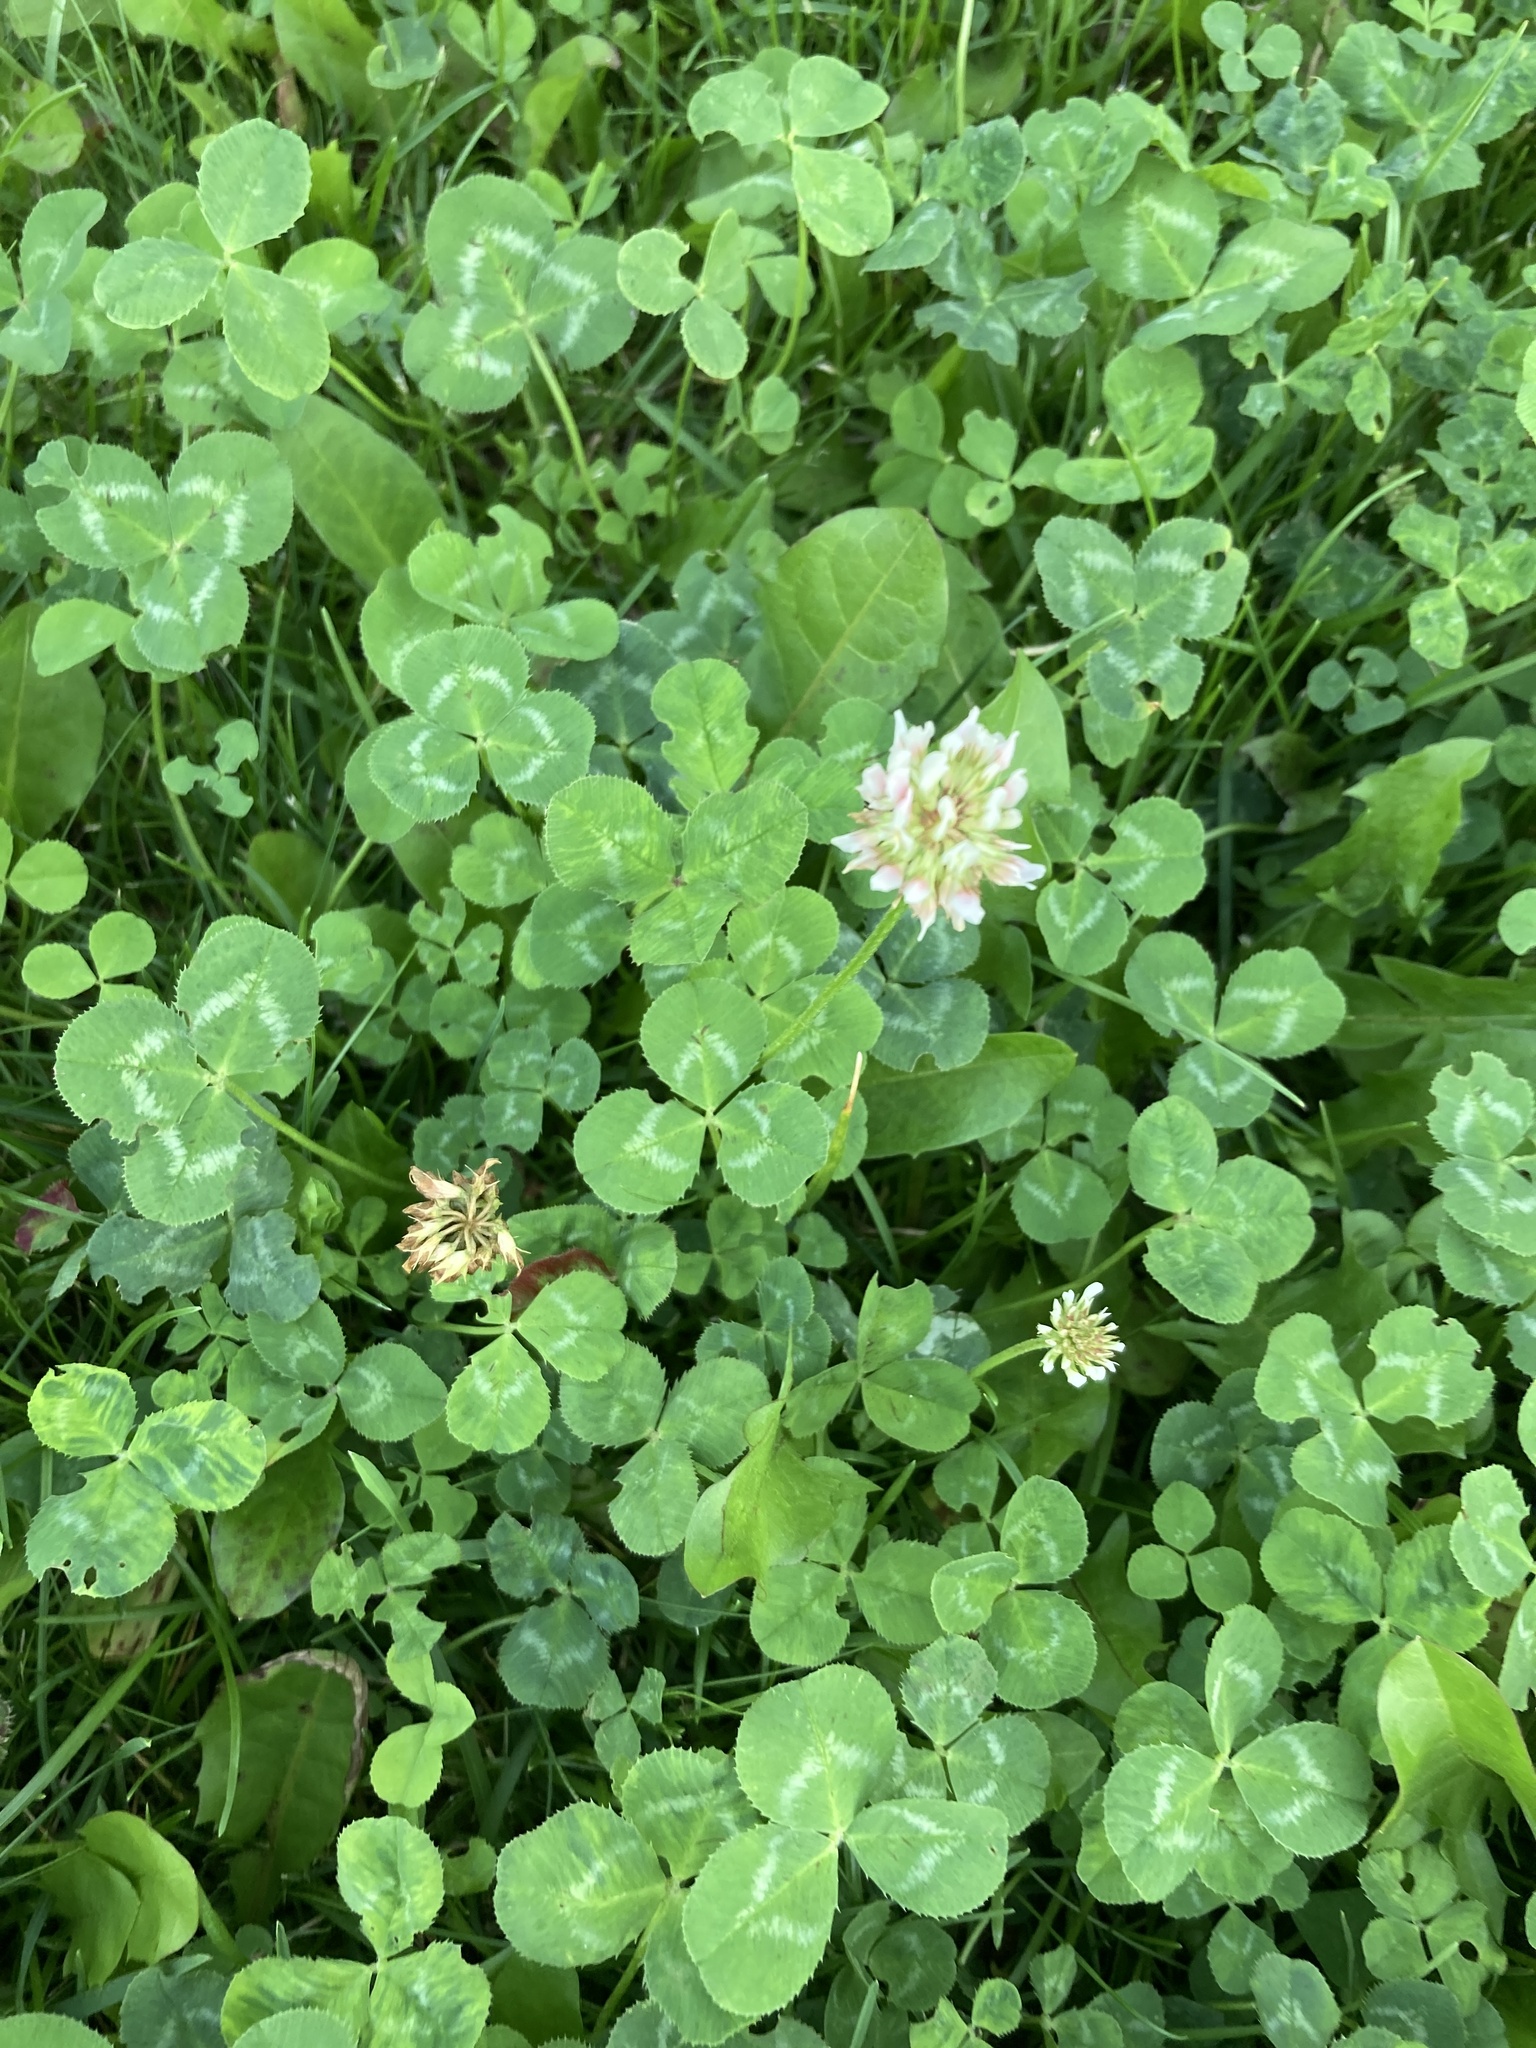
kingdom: Plantae
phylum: Tracheophyta
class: Magnoliopsida
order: Fabales
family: Fabaceae
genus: Trifolium
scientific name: Trifolium repens
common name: White clover
